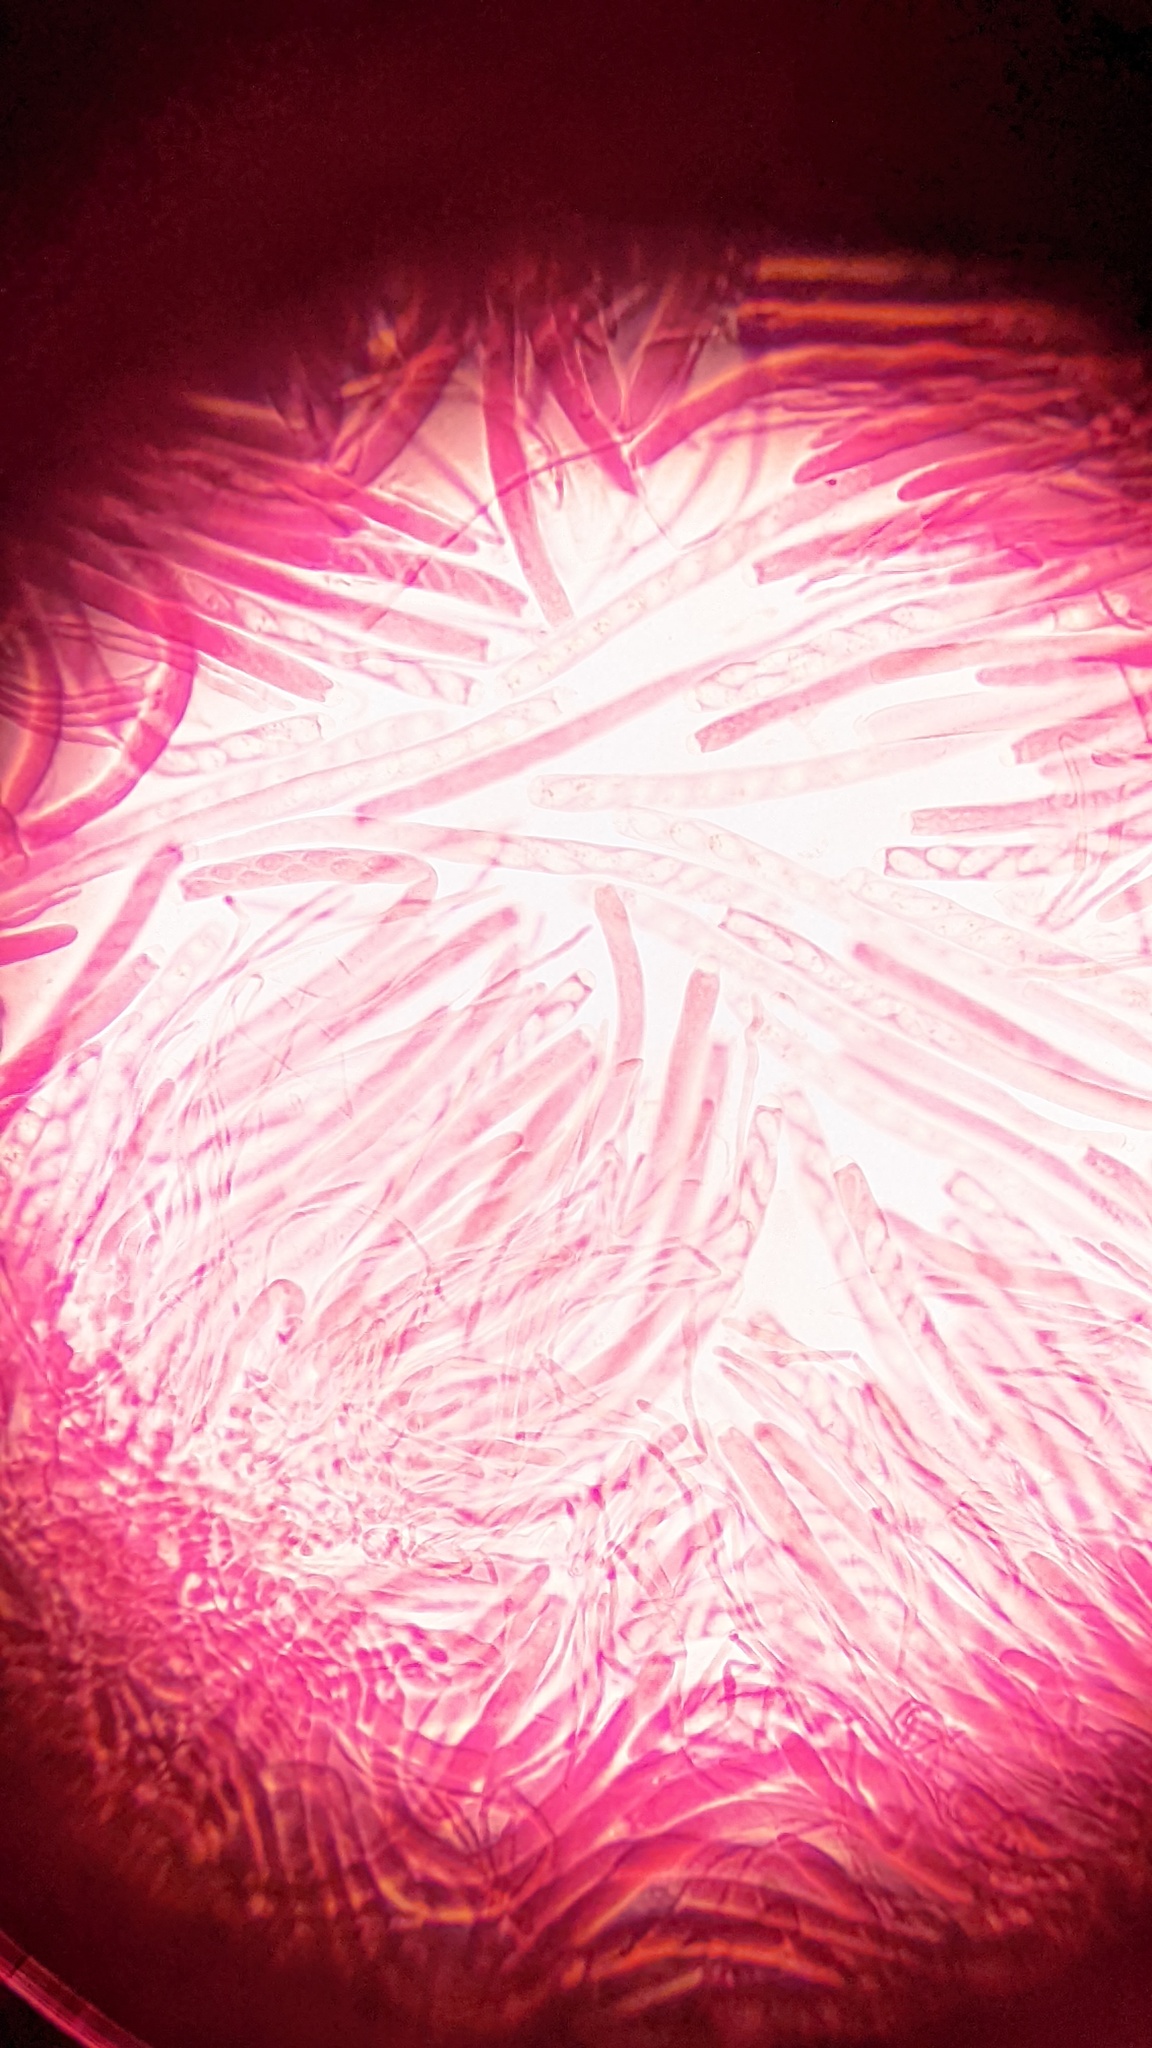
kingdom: Fungi
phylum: Ascomycota
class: Leotiomycetes
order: Helotiales
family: Sclerotiniaceae
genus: Ciborinia
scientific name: Ciborinia camelliae
